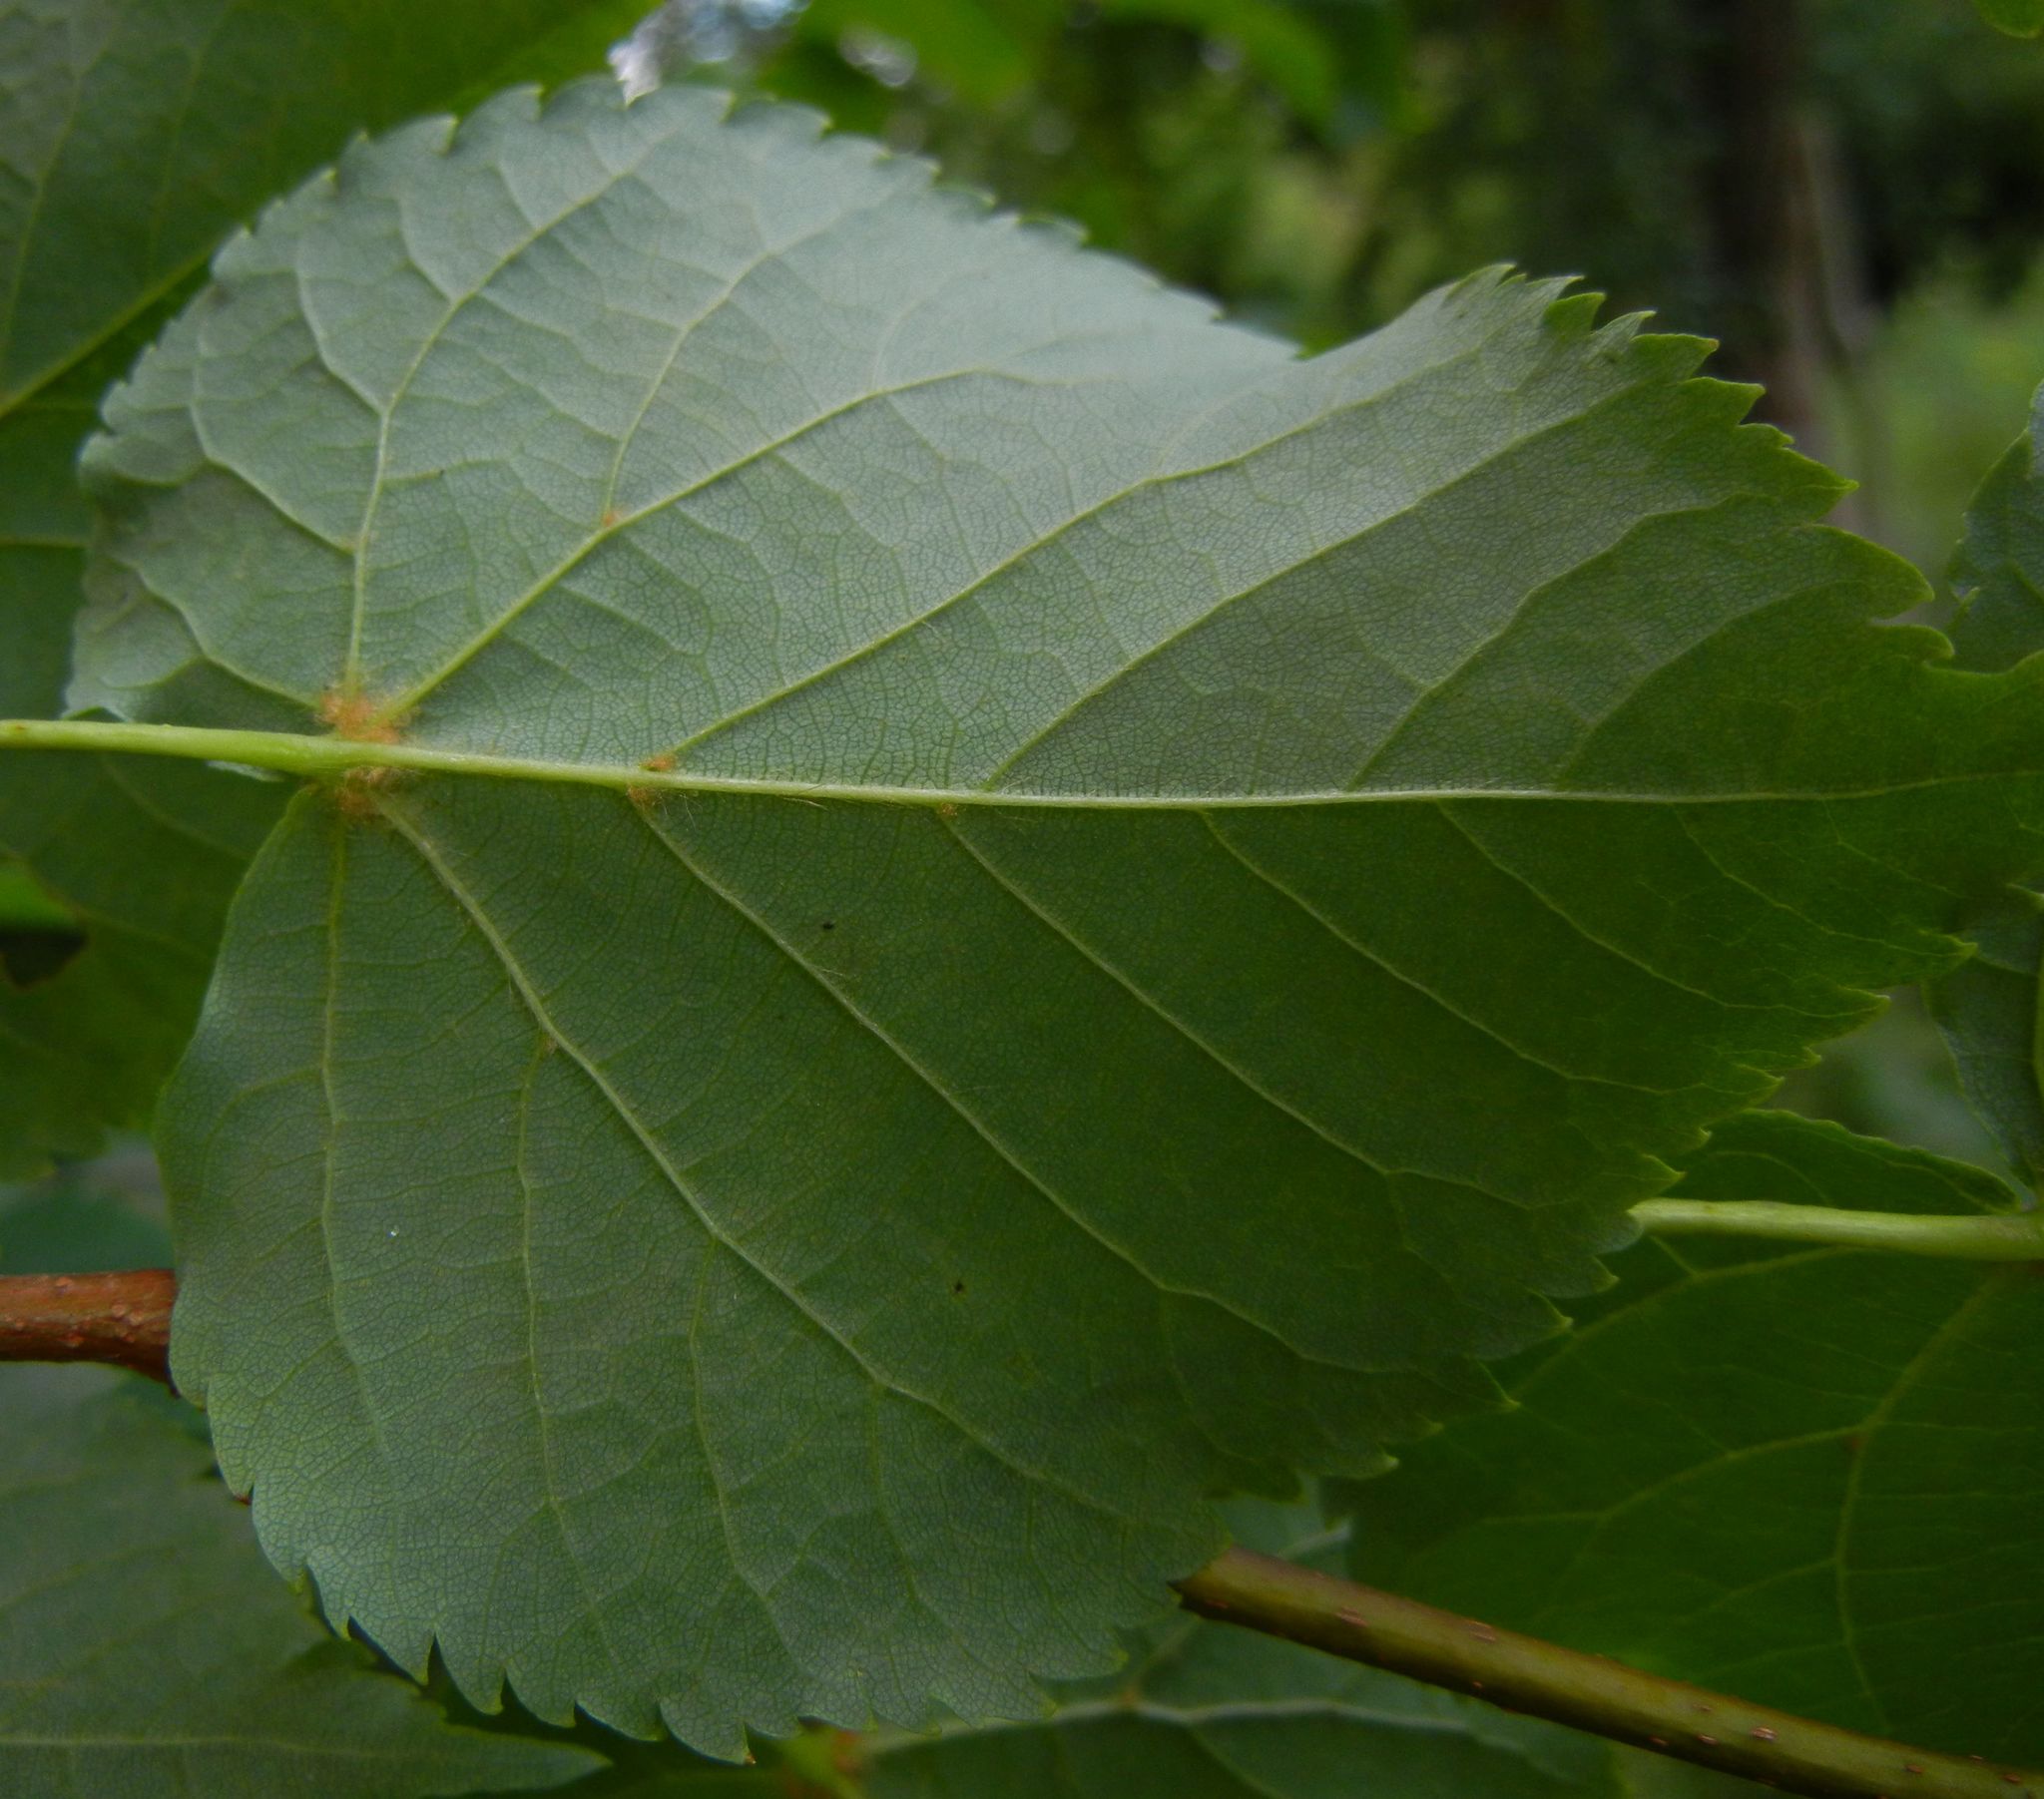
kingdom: Plantae
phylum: Tracheophyta
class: Magnoliopsida
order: Malvales
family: Malvaceae
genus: Tilia
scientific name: Tilia cordata
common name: Small-leaved lime
